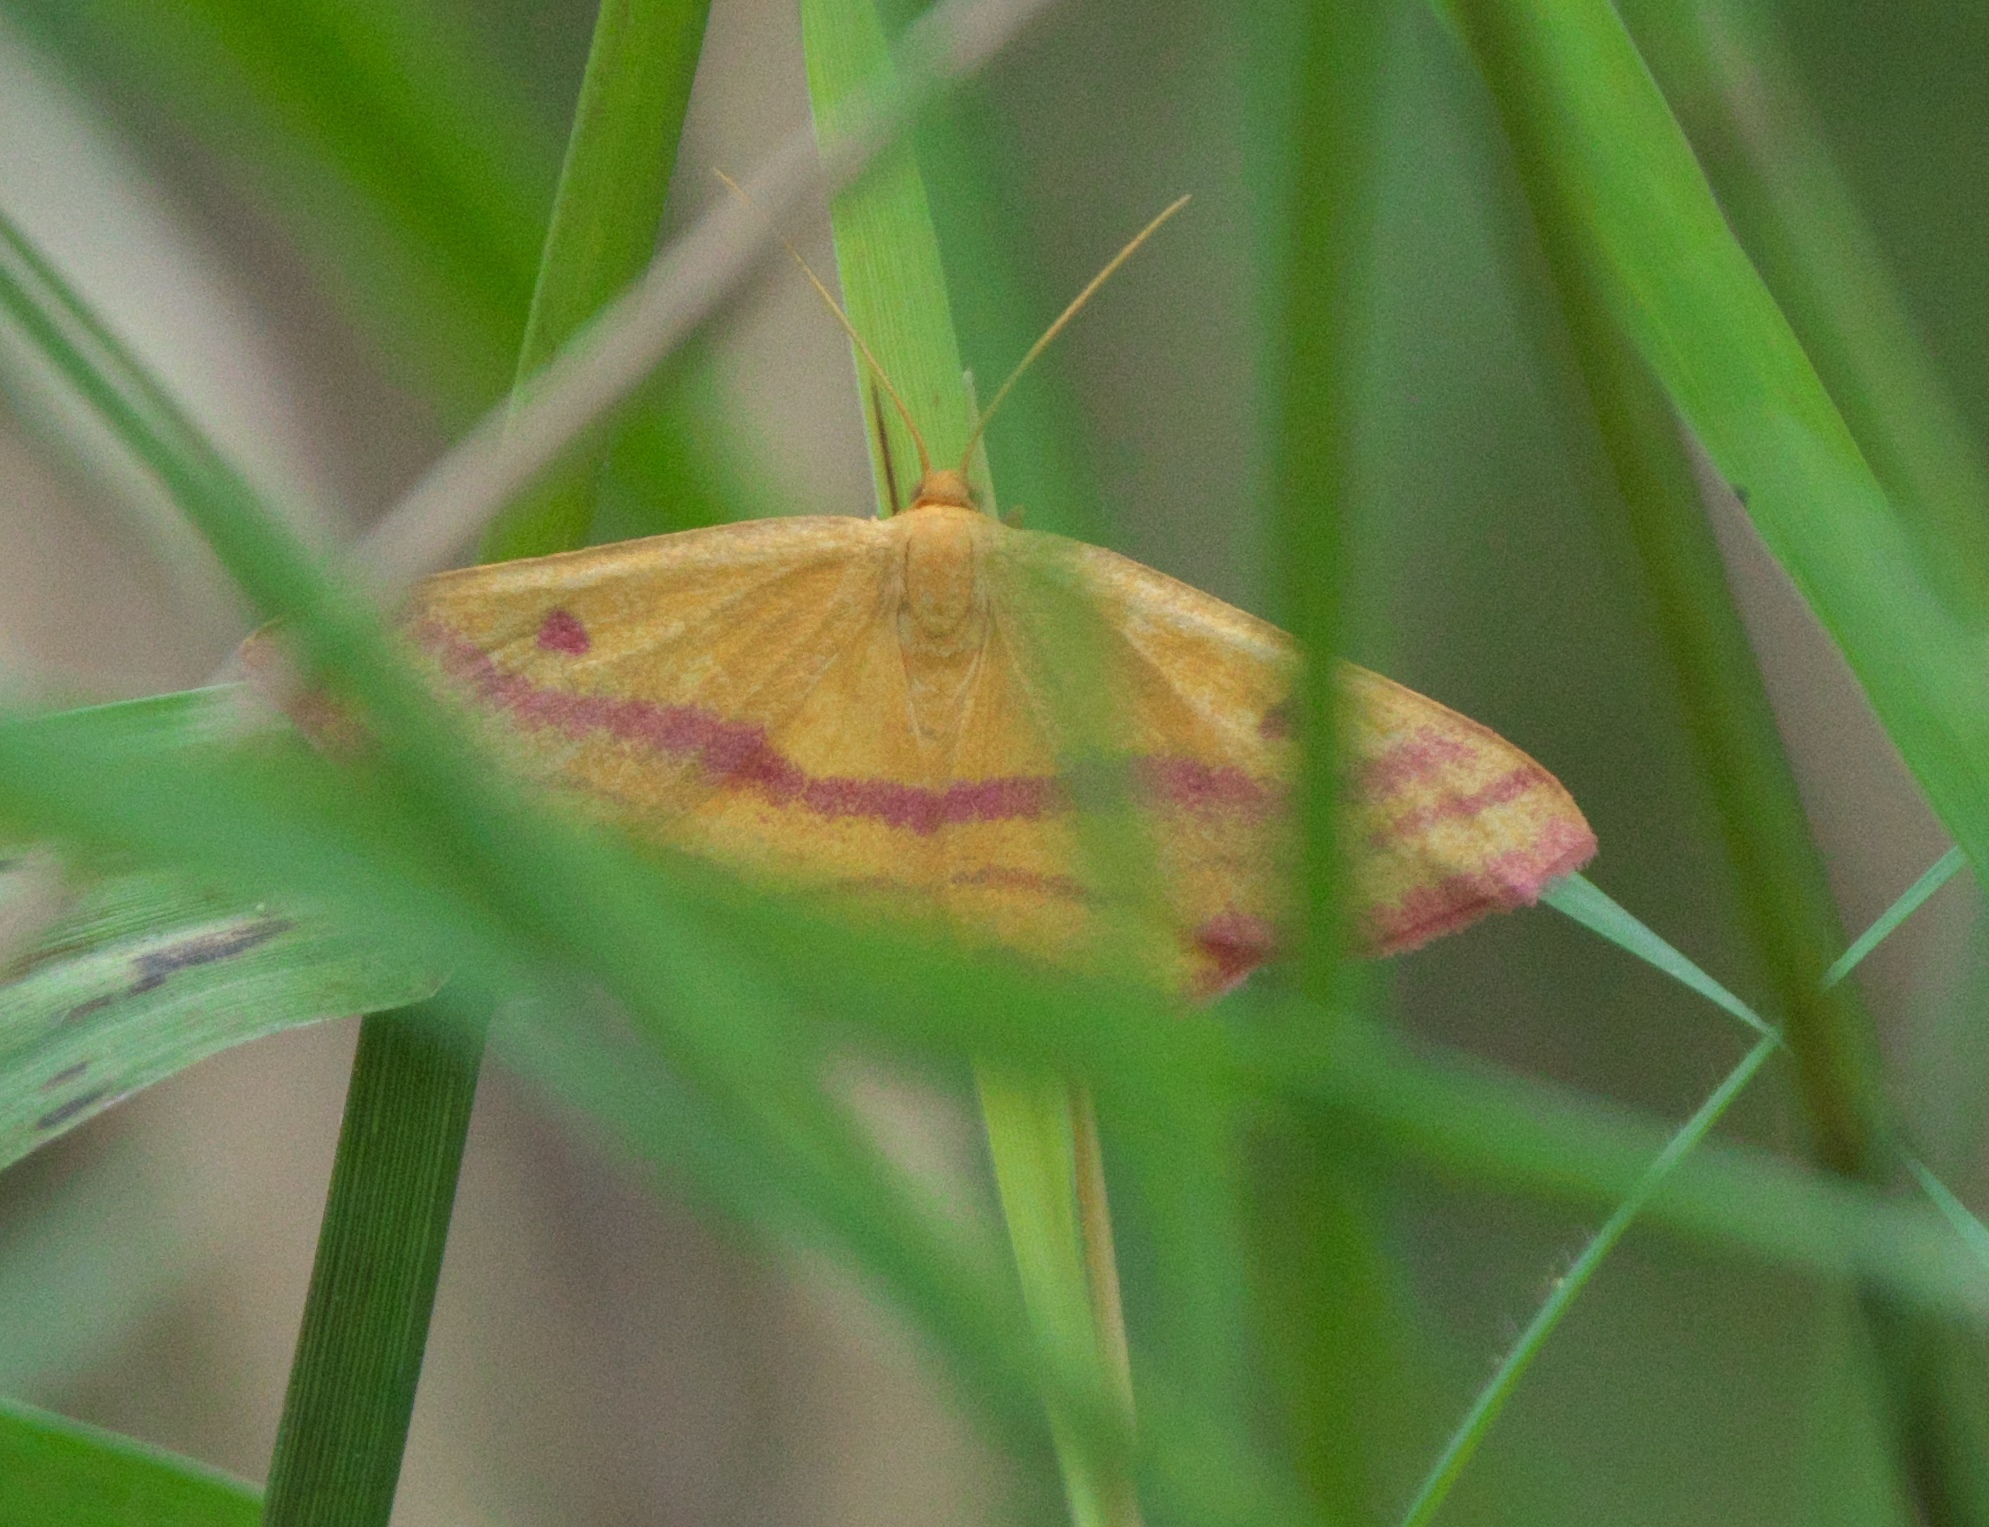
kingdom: Animalia
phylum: Arthropoda
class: Insecta
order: Lepidoptera
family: Geometridae
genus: Haematopis
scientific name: Haematopis grataria
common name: Chickweed geometer
